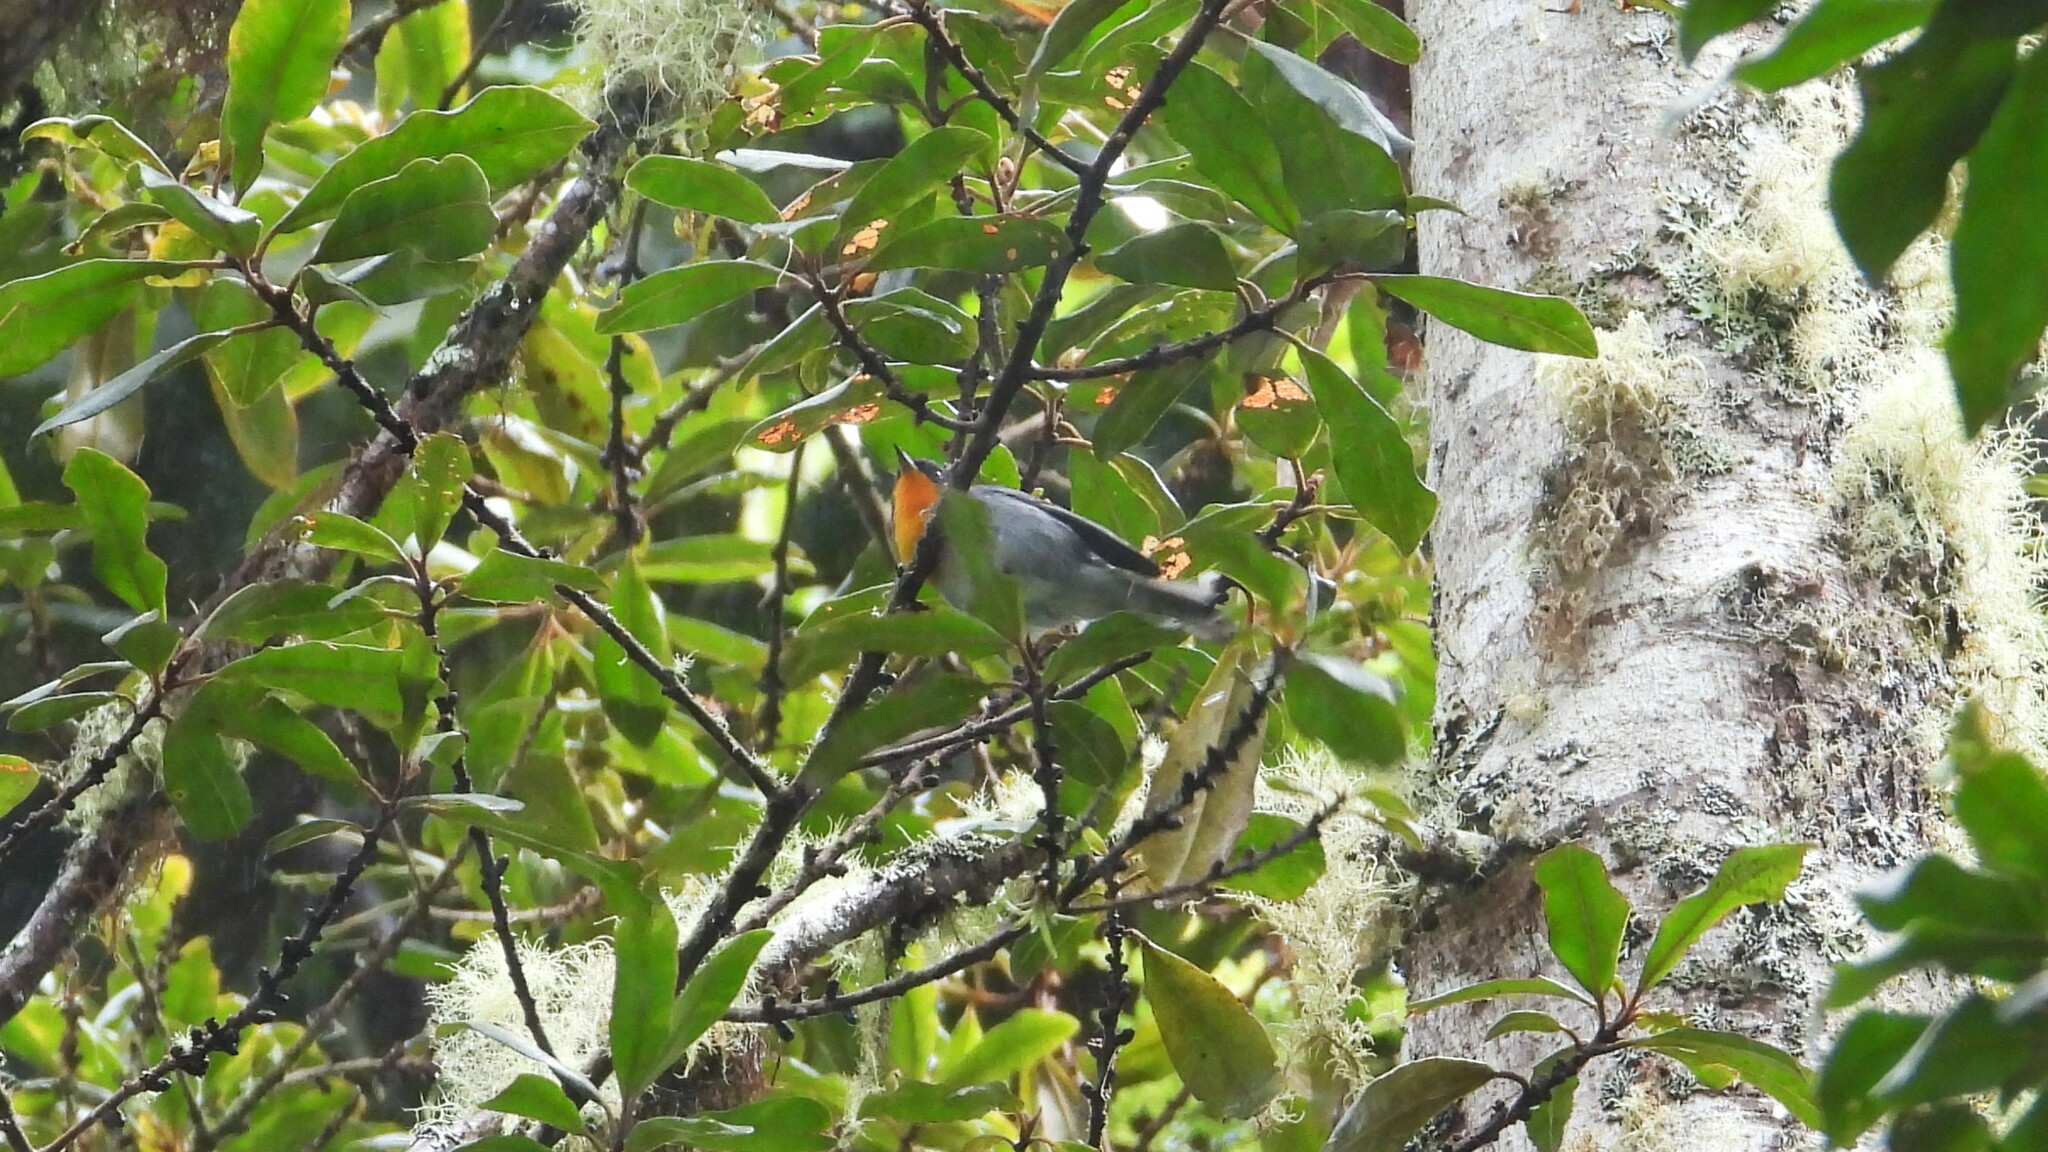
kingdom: Animalia
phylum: Chordata
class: Aves
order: Passeriformes
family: Parulidae
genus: Oreothlypis
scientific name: Oreothlypis gutturalis
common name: Flame-throated warbler
